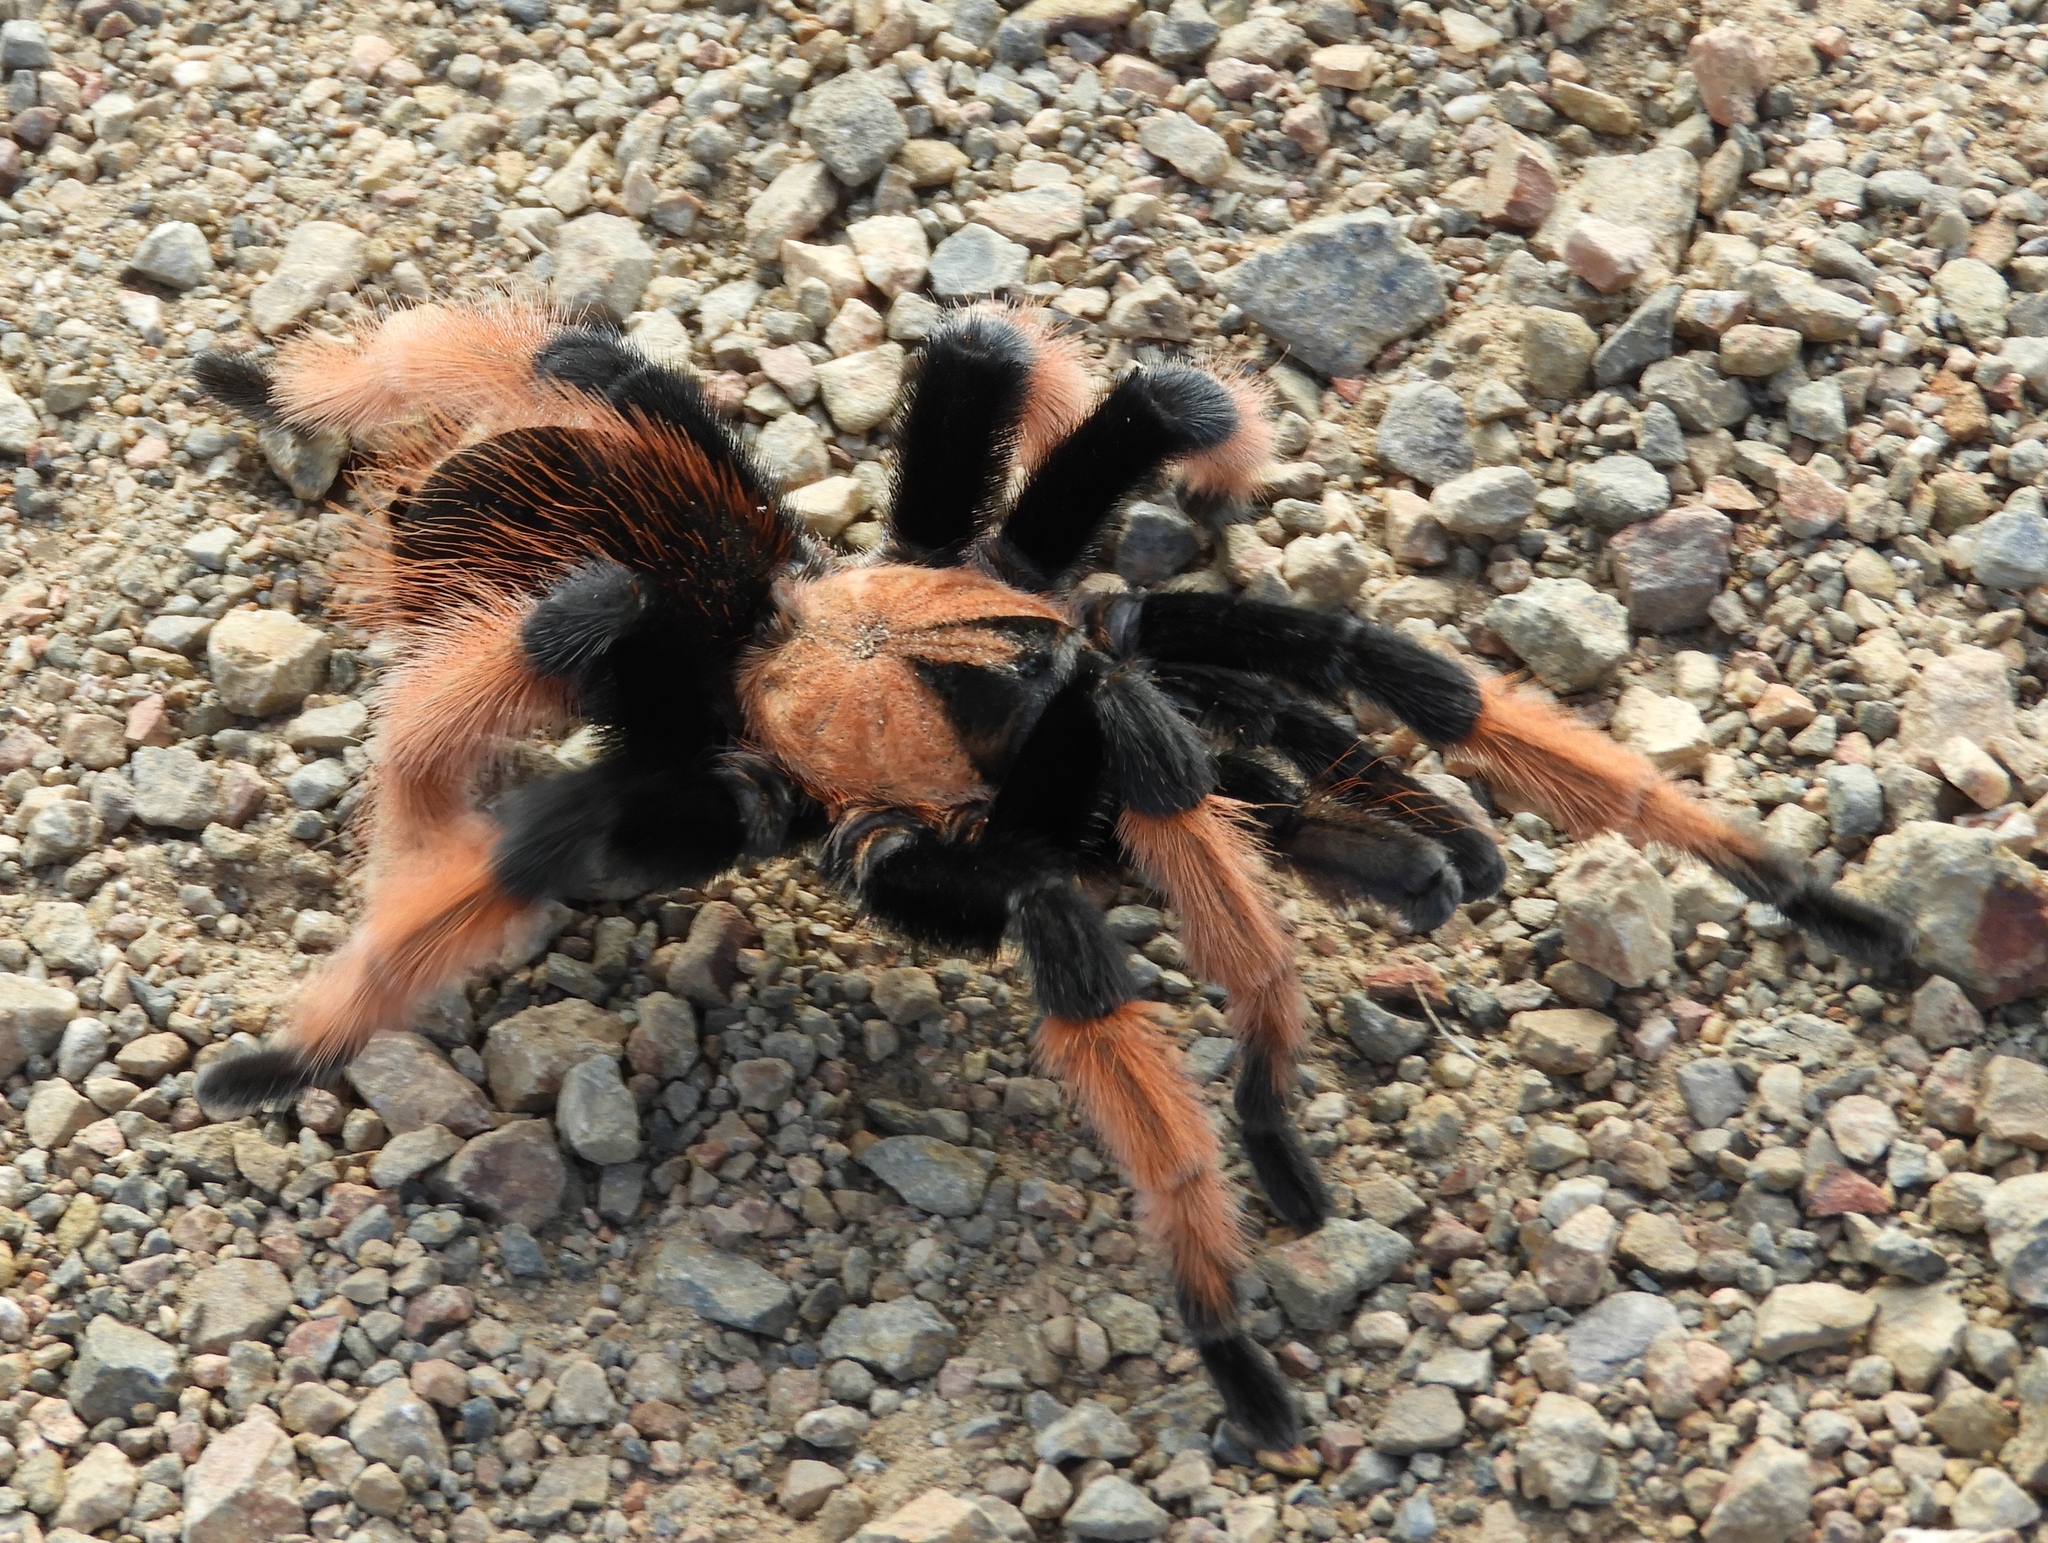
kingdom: Animalia
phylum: Arthropoda
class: Arachnida
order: Araneae
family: Theraphosidae
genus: Brachypelma
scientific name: Brachypelma emilia
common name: Mexican redleg
